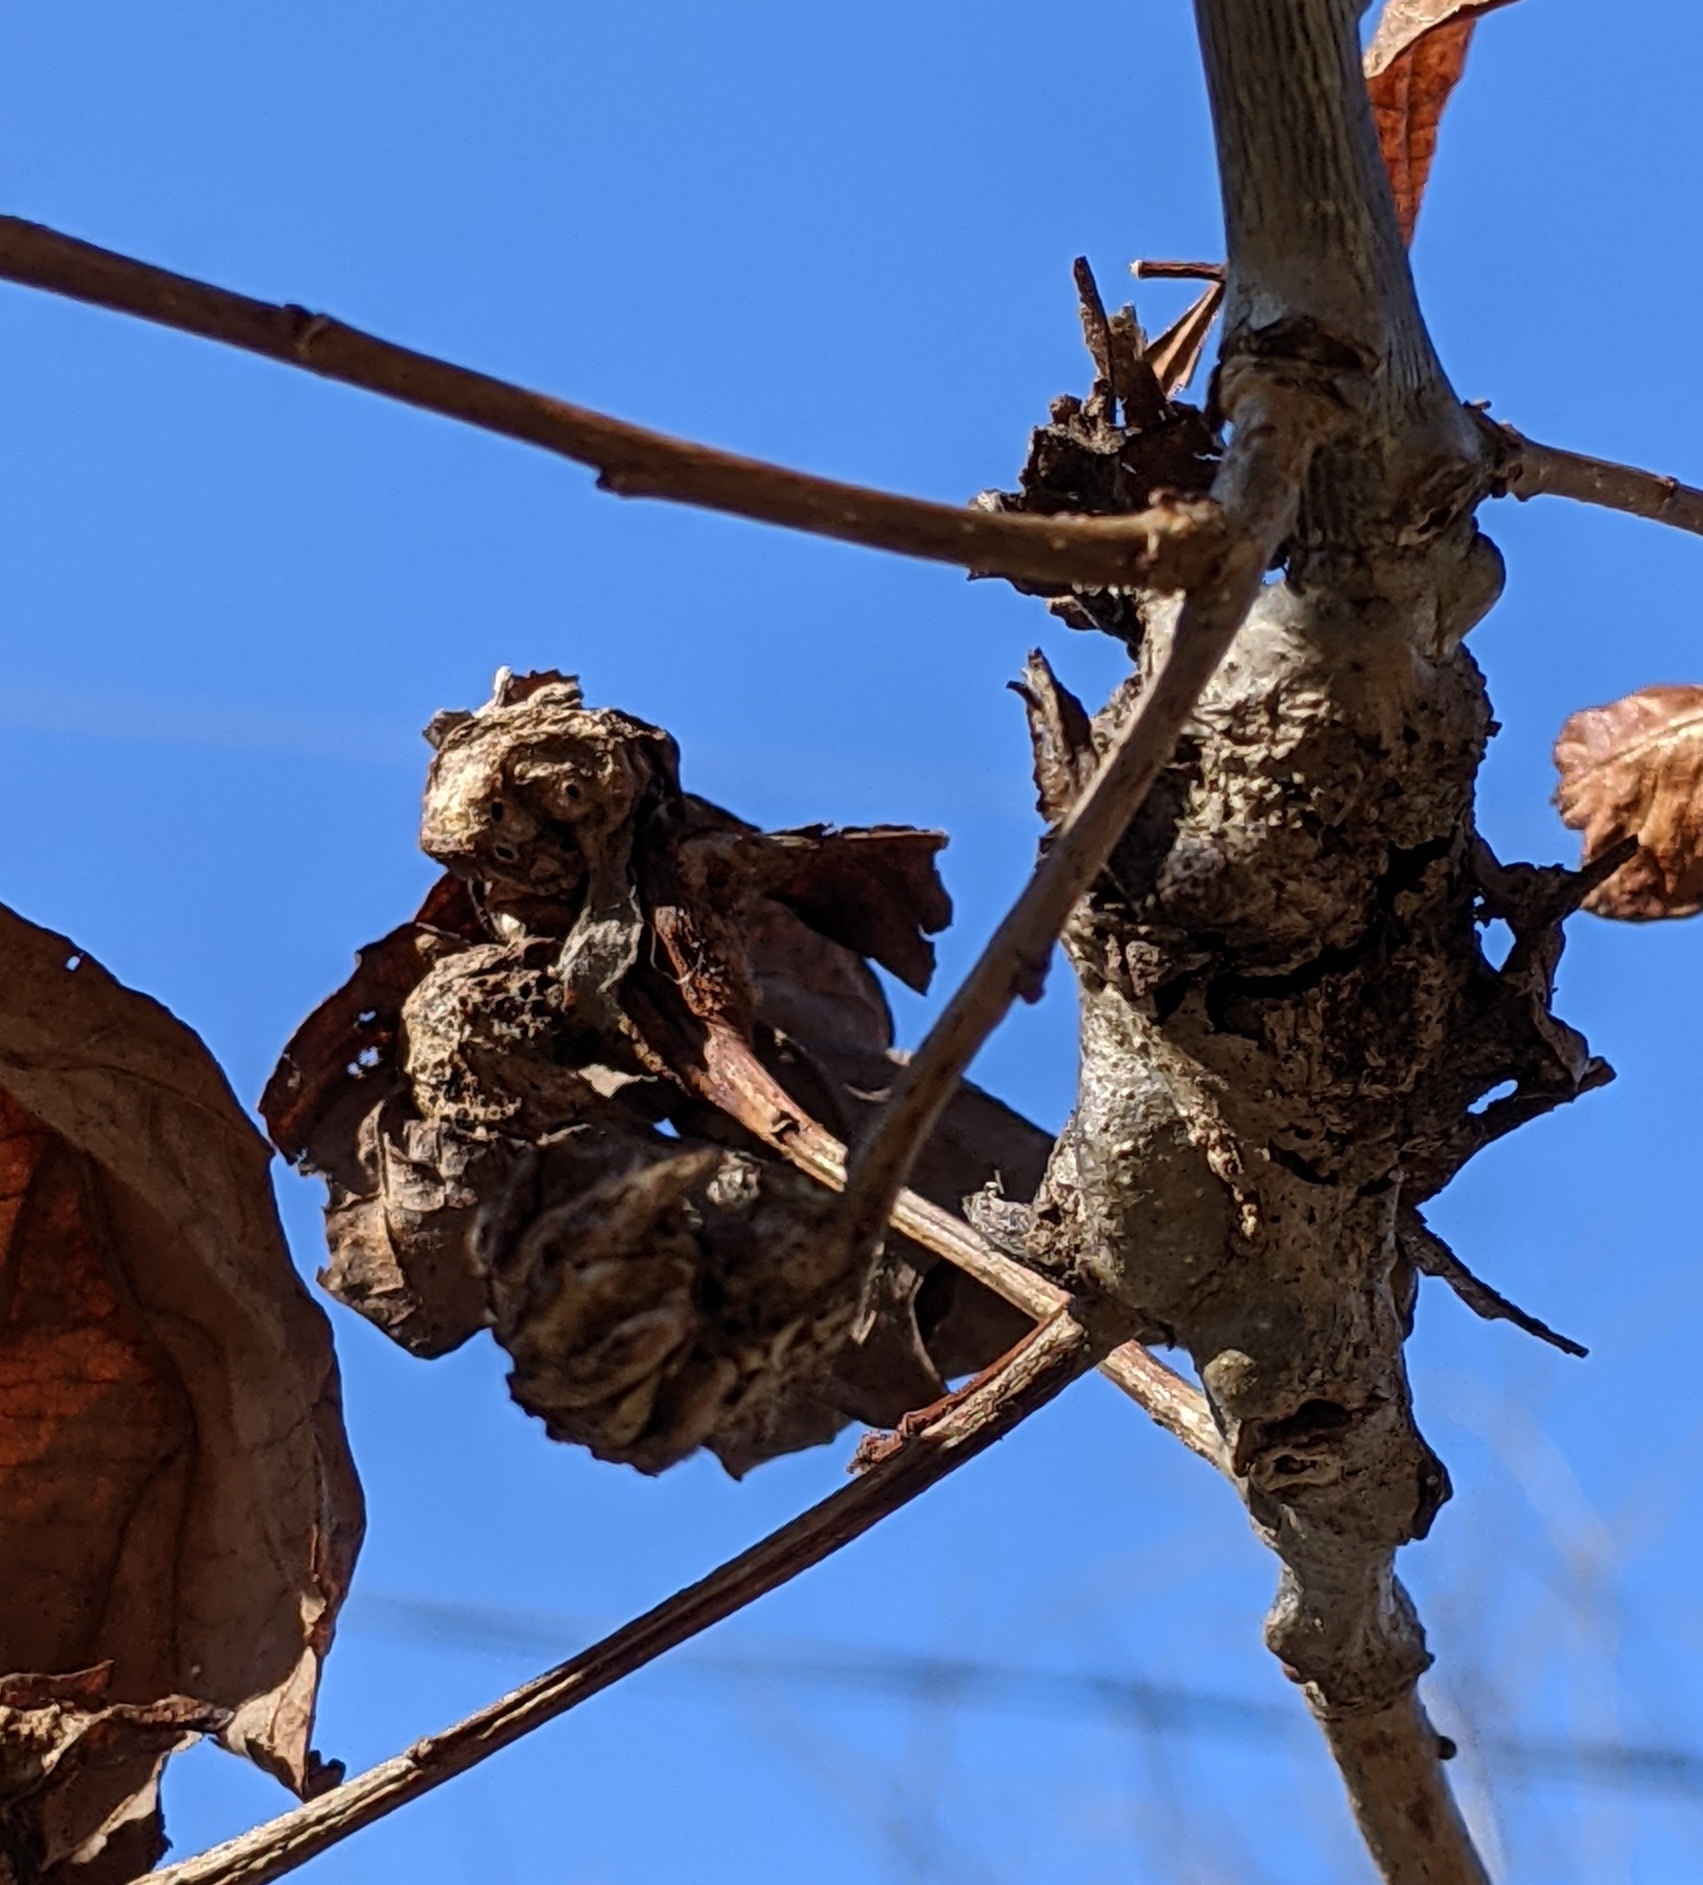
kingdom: Animalia
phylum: Arthropoda
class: Insecta
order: Hymenoptera
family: Cynipidae
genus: Neuroterus
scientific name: Neuroterus quercusbaccarum
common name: Common spangle gall
